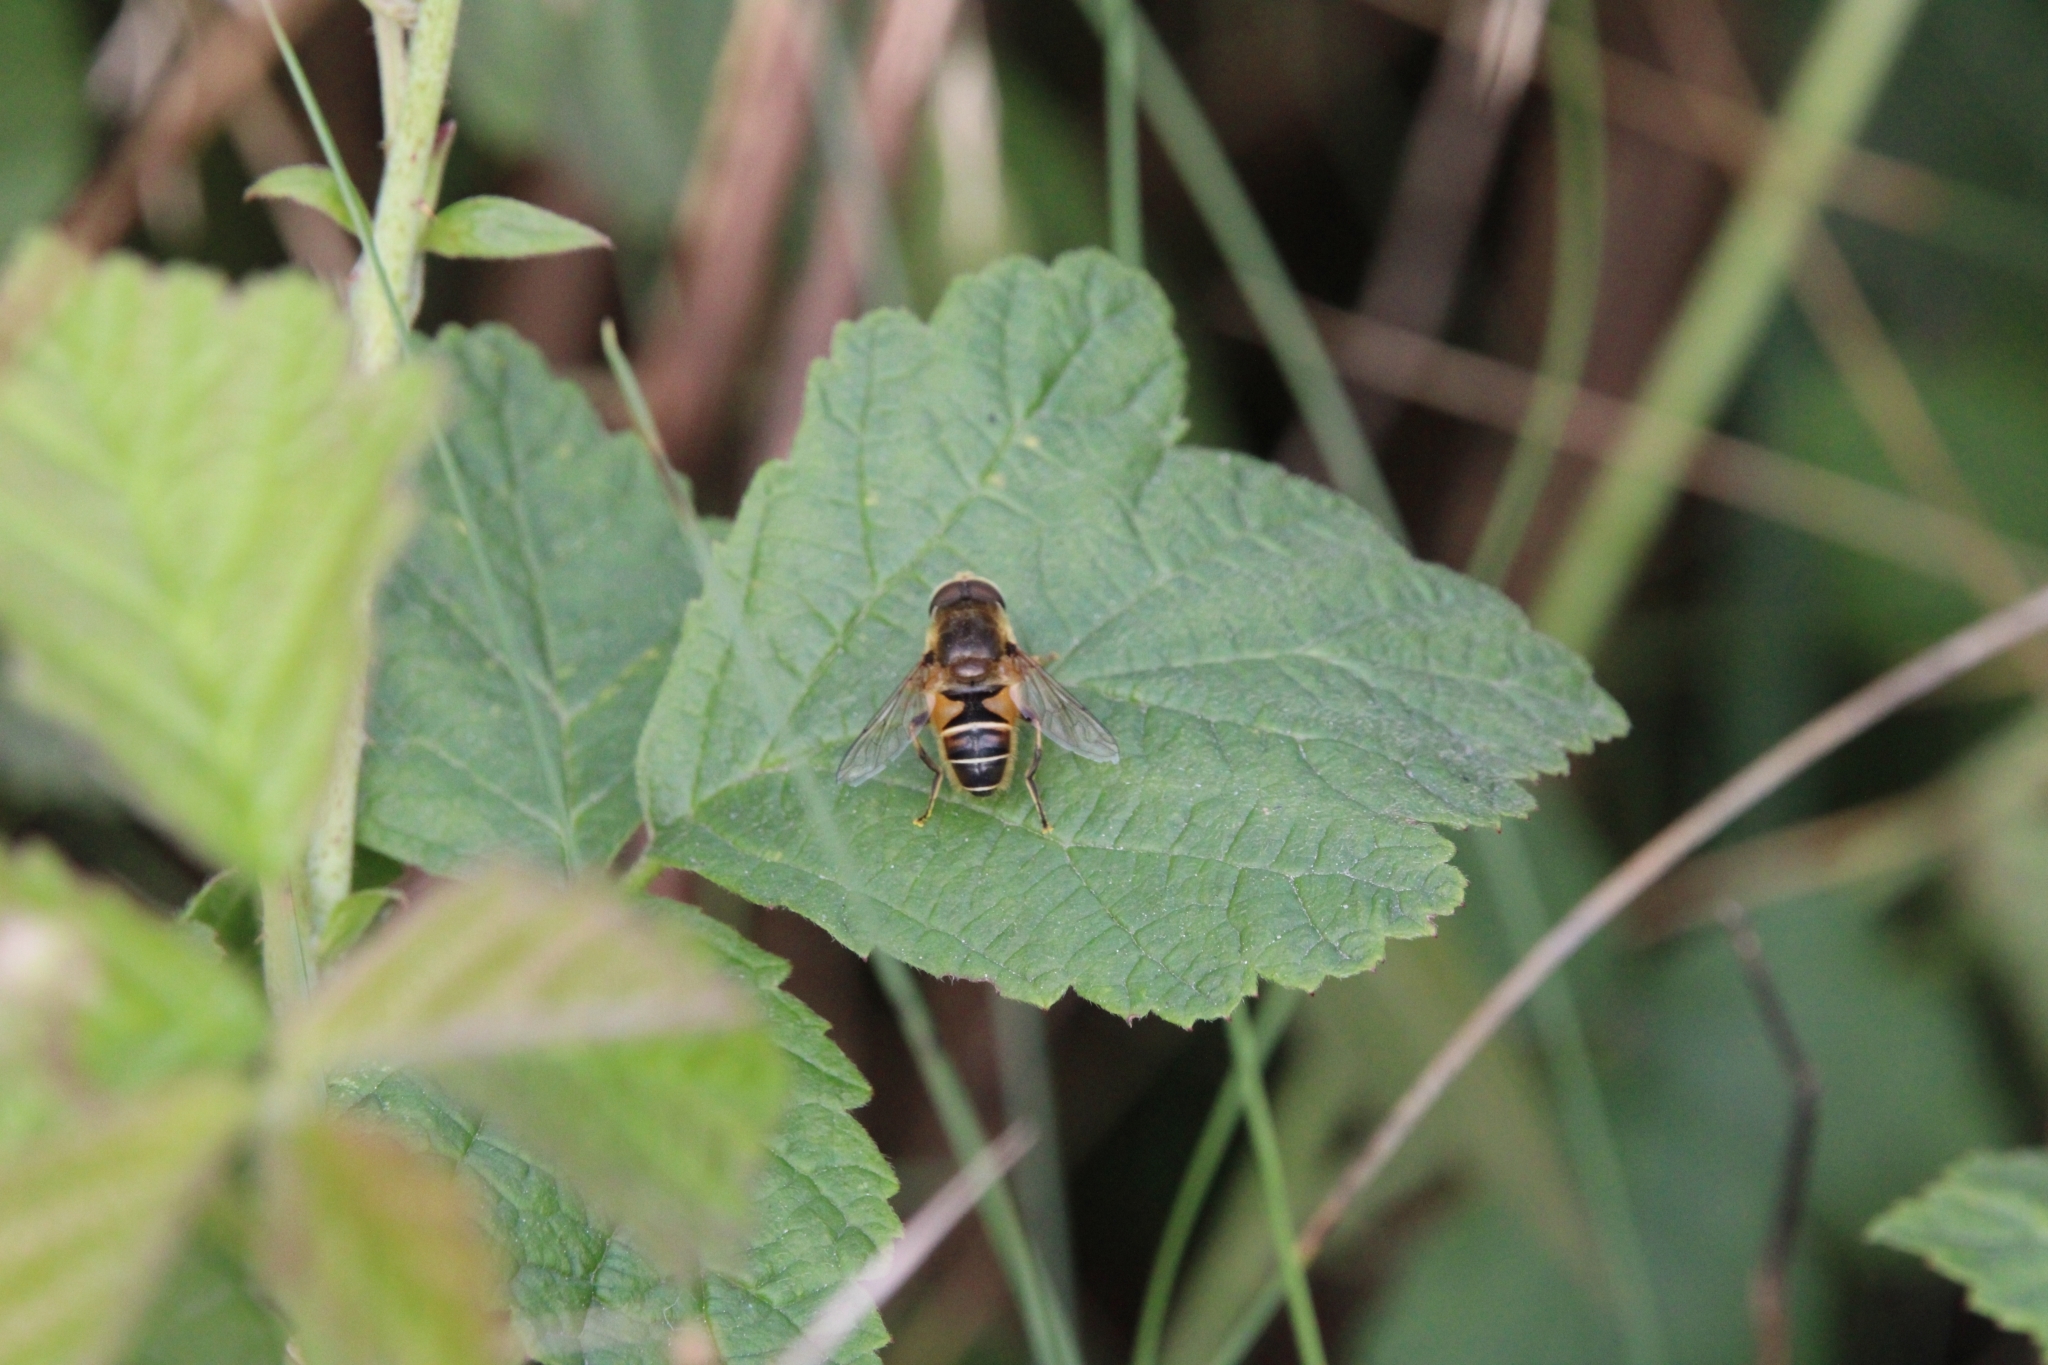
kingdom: Animalia
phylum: Arthropoda
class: Insecta
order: Diptera
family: Syrphidae
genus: Eristalis
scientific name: Eristalis nemorum
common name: Orange-spined drone fly
